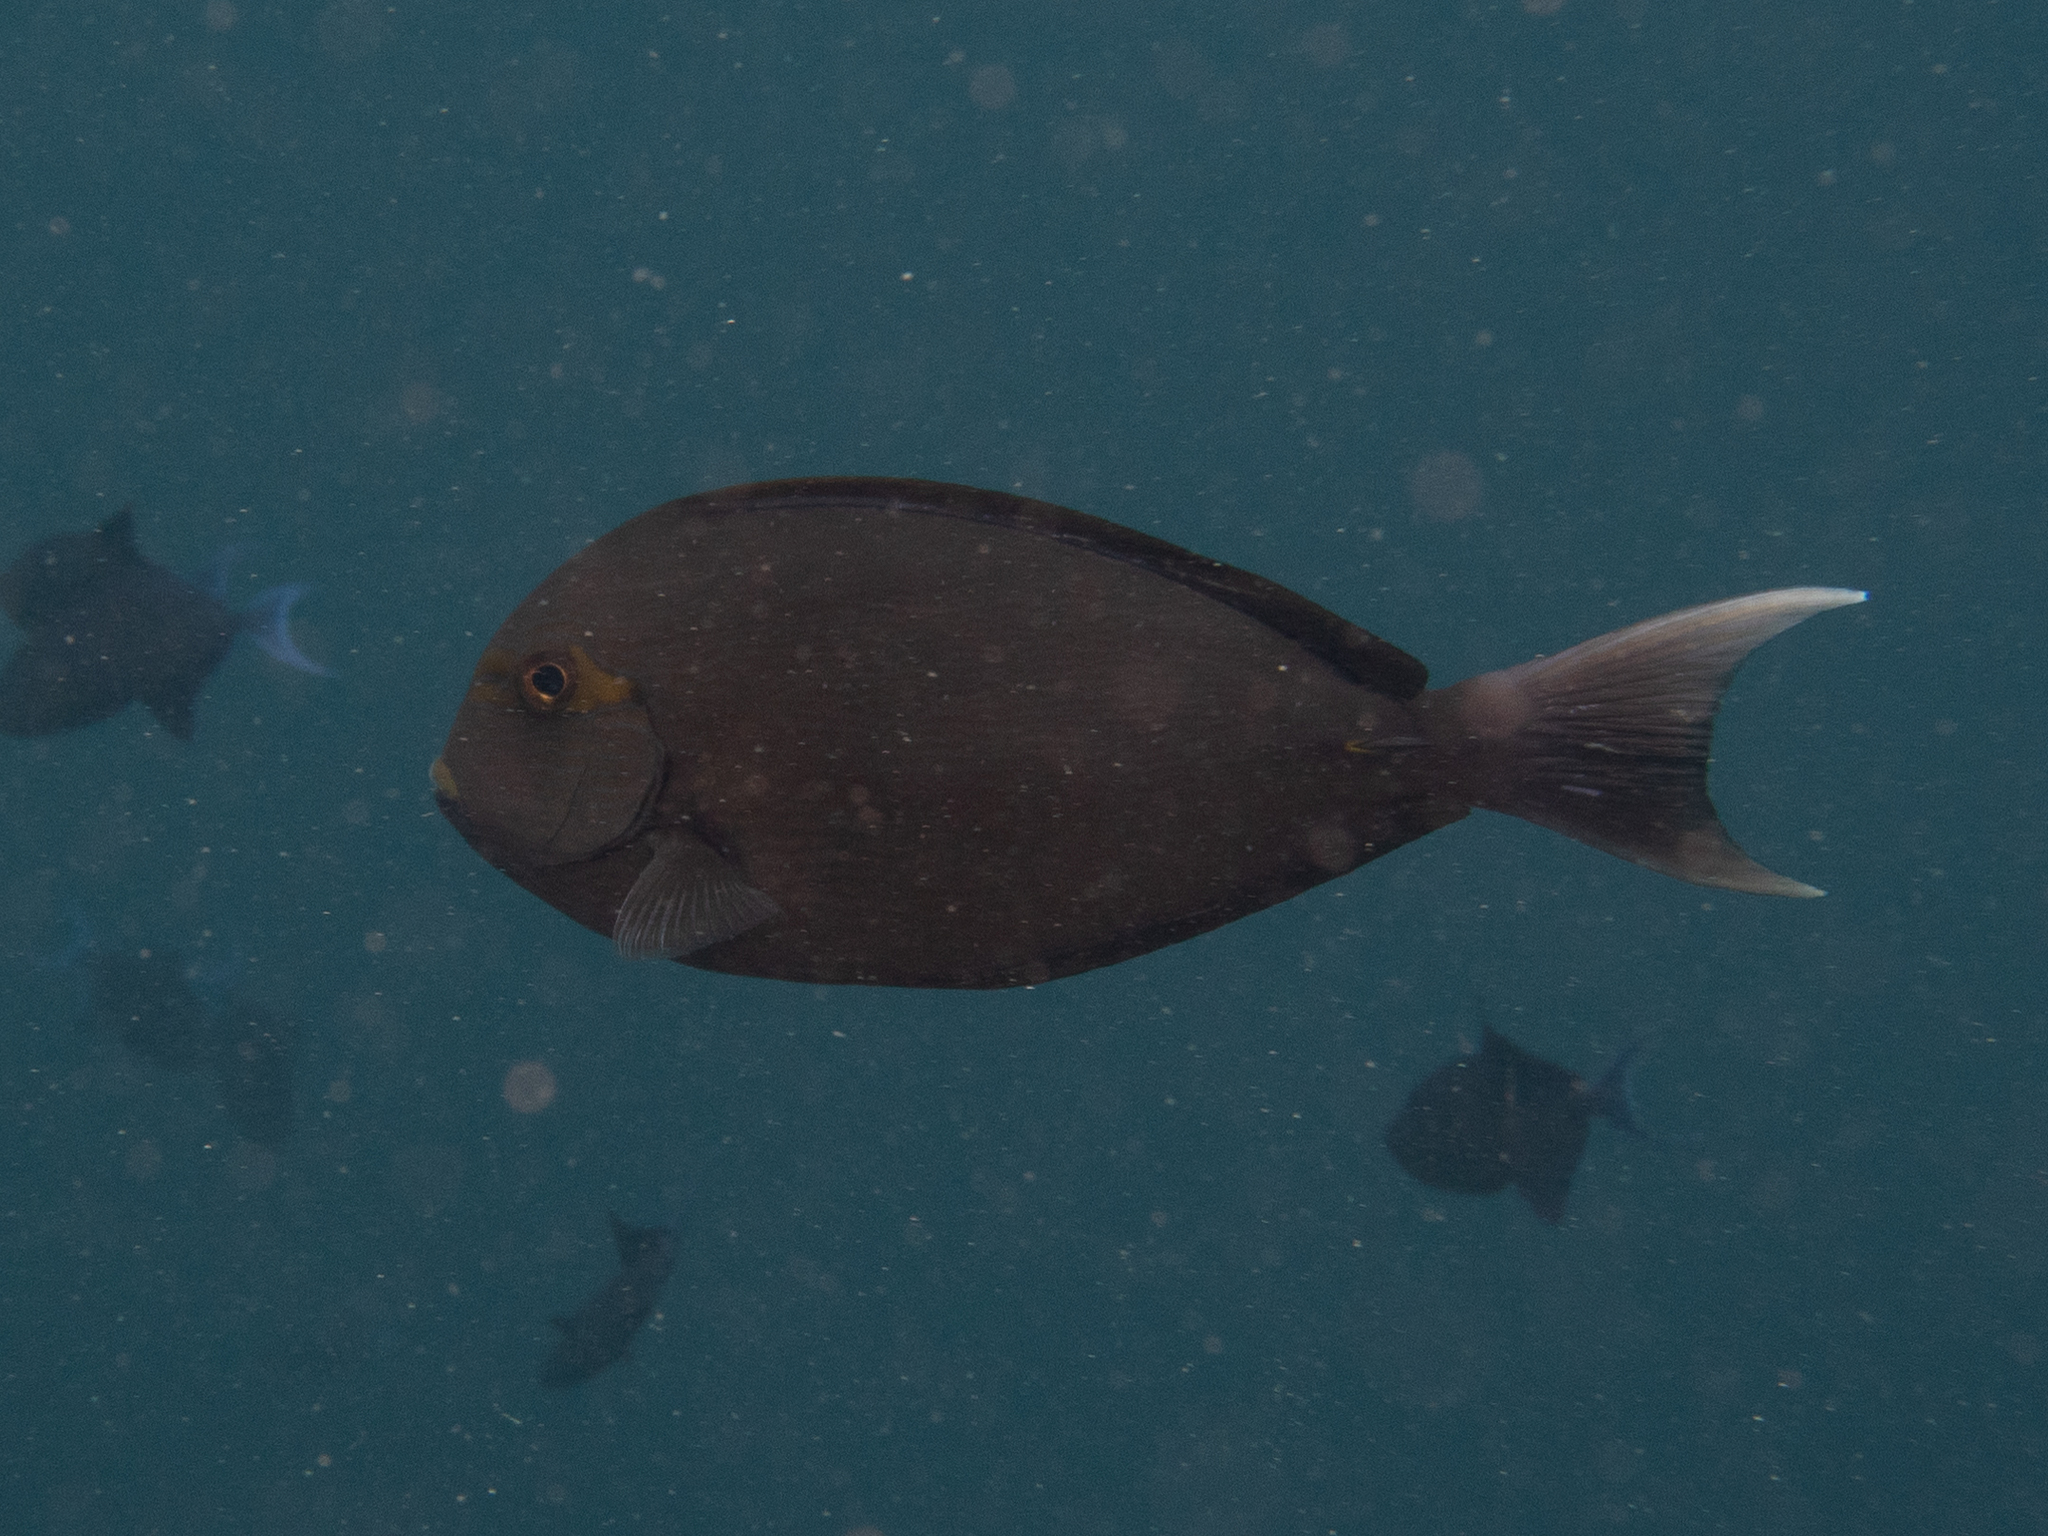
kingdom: Animalia
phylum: Chordata
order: Perciformes
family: Acanthuridae
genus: Acanthurus
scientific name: Acanthurus mata
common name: Bleeker's surgeonfish
